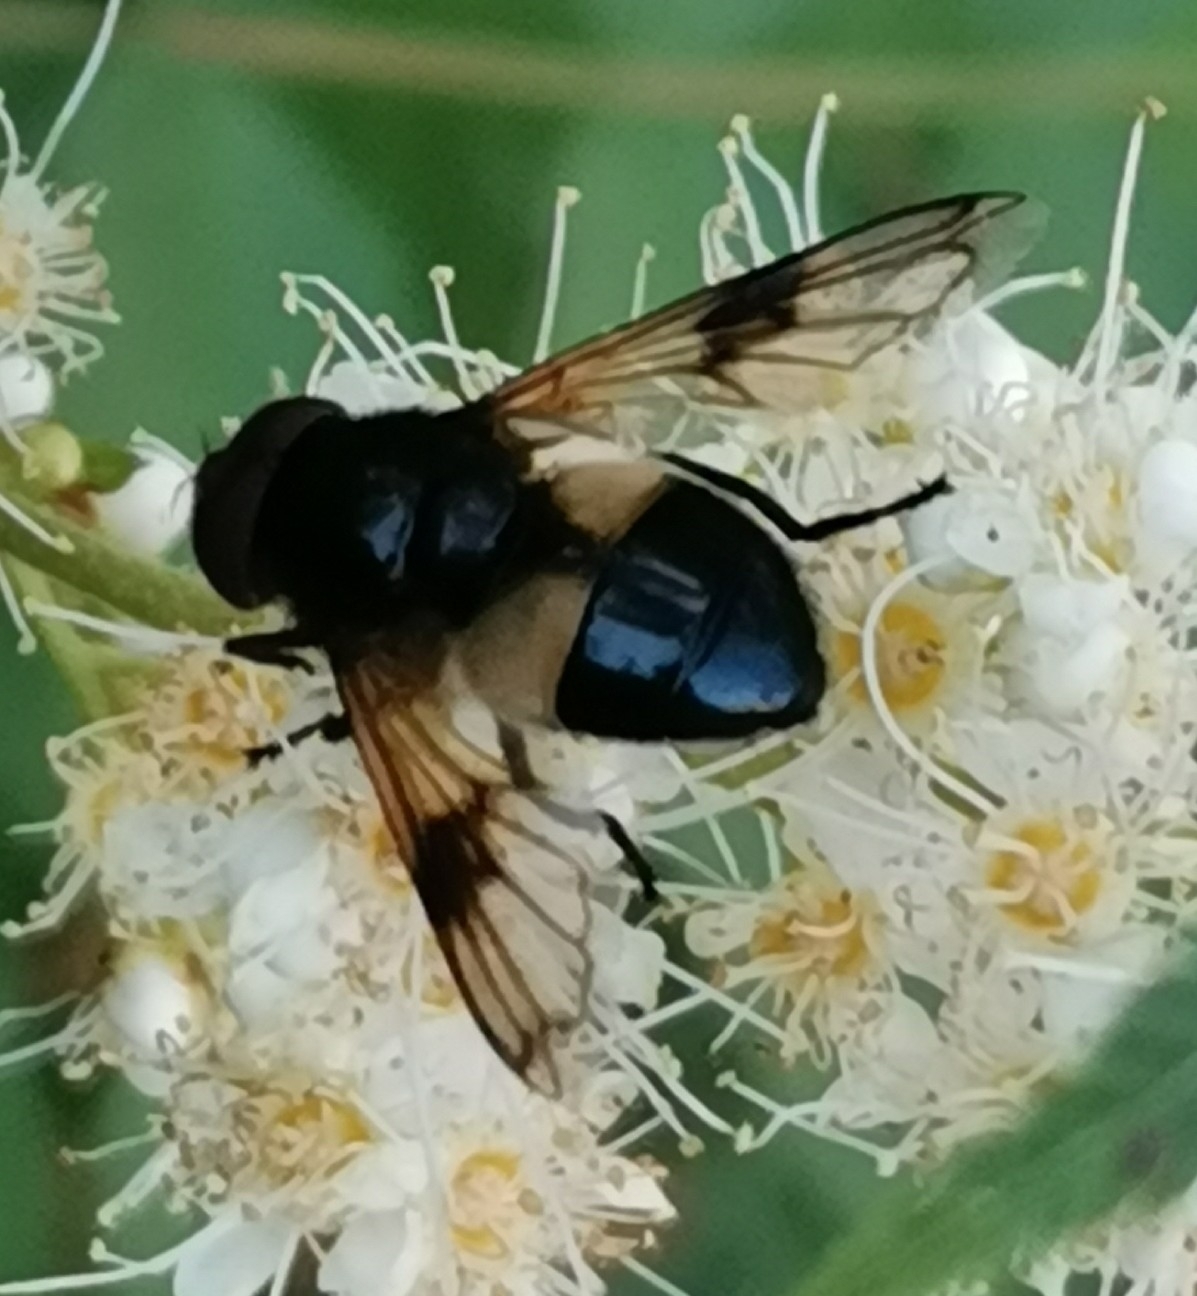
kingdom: Animalia
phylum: Arthropoda
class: Insecta
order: Diptera
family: Syrphidae
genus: Volucella
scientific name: Volucella pellucens
